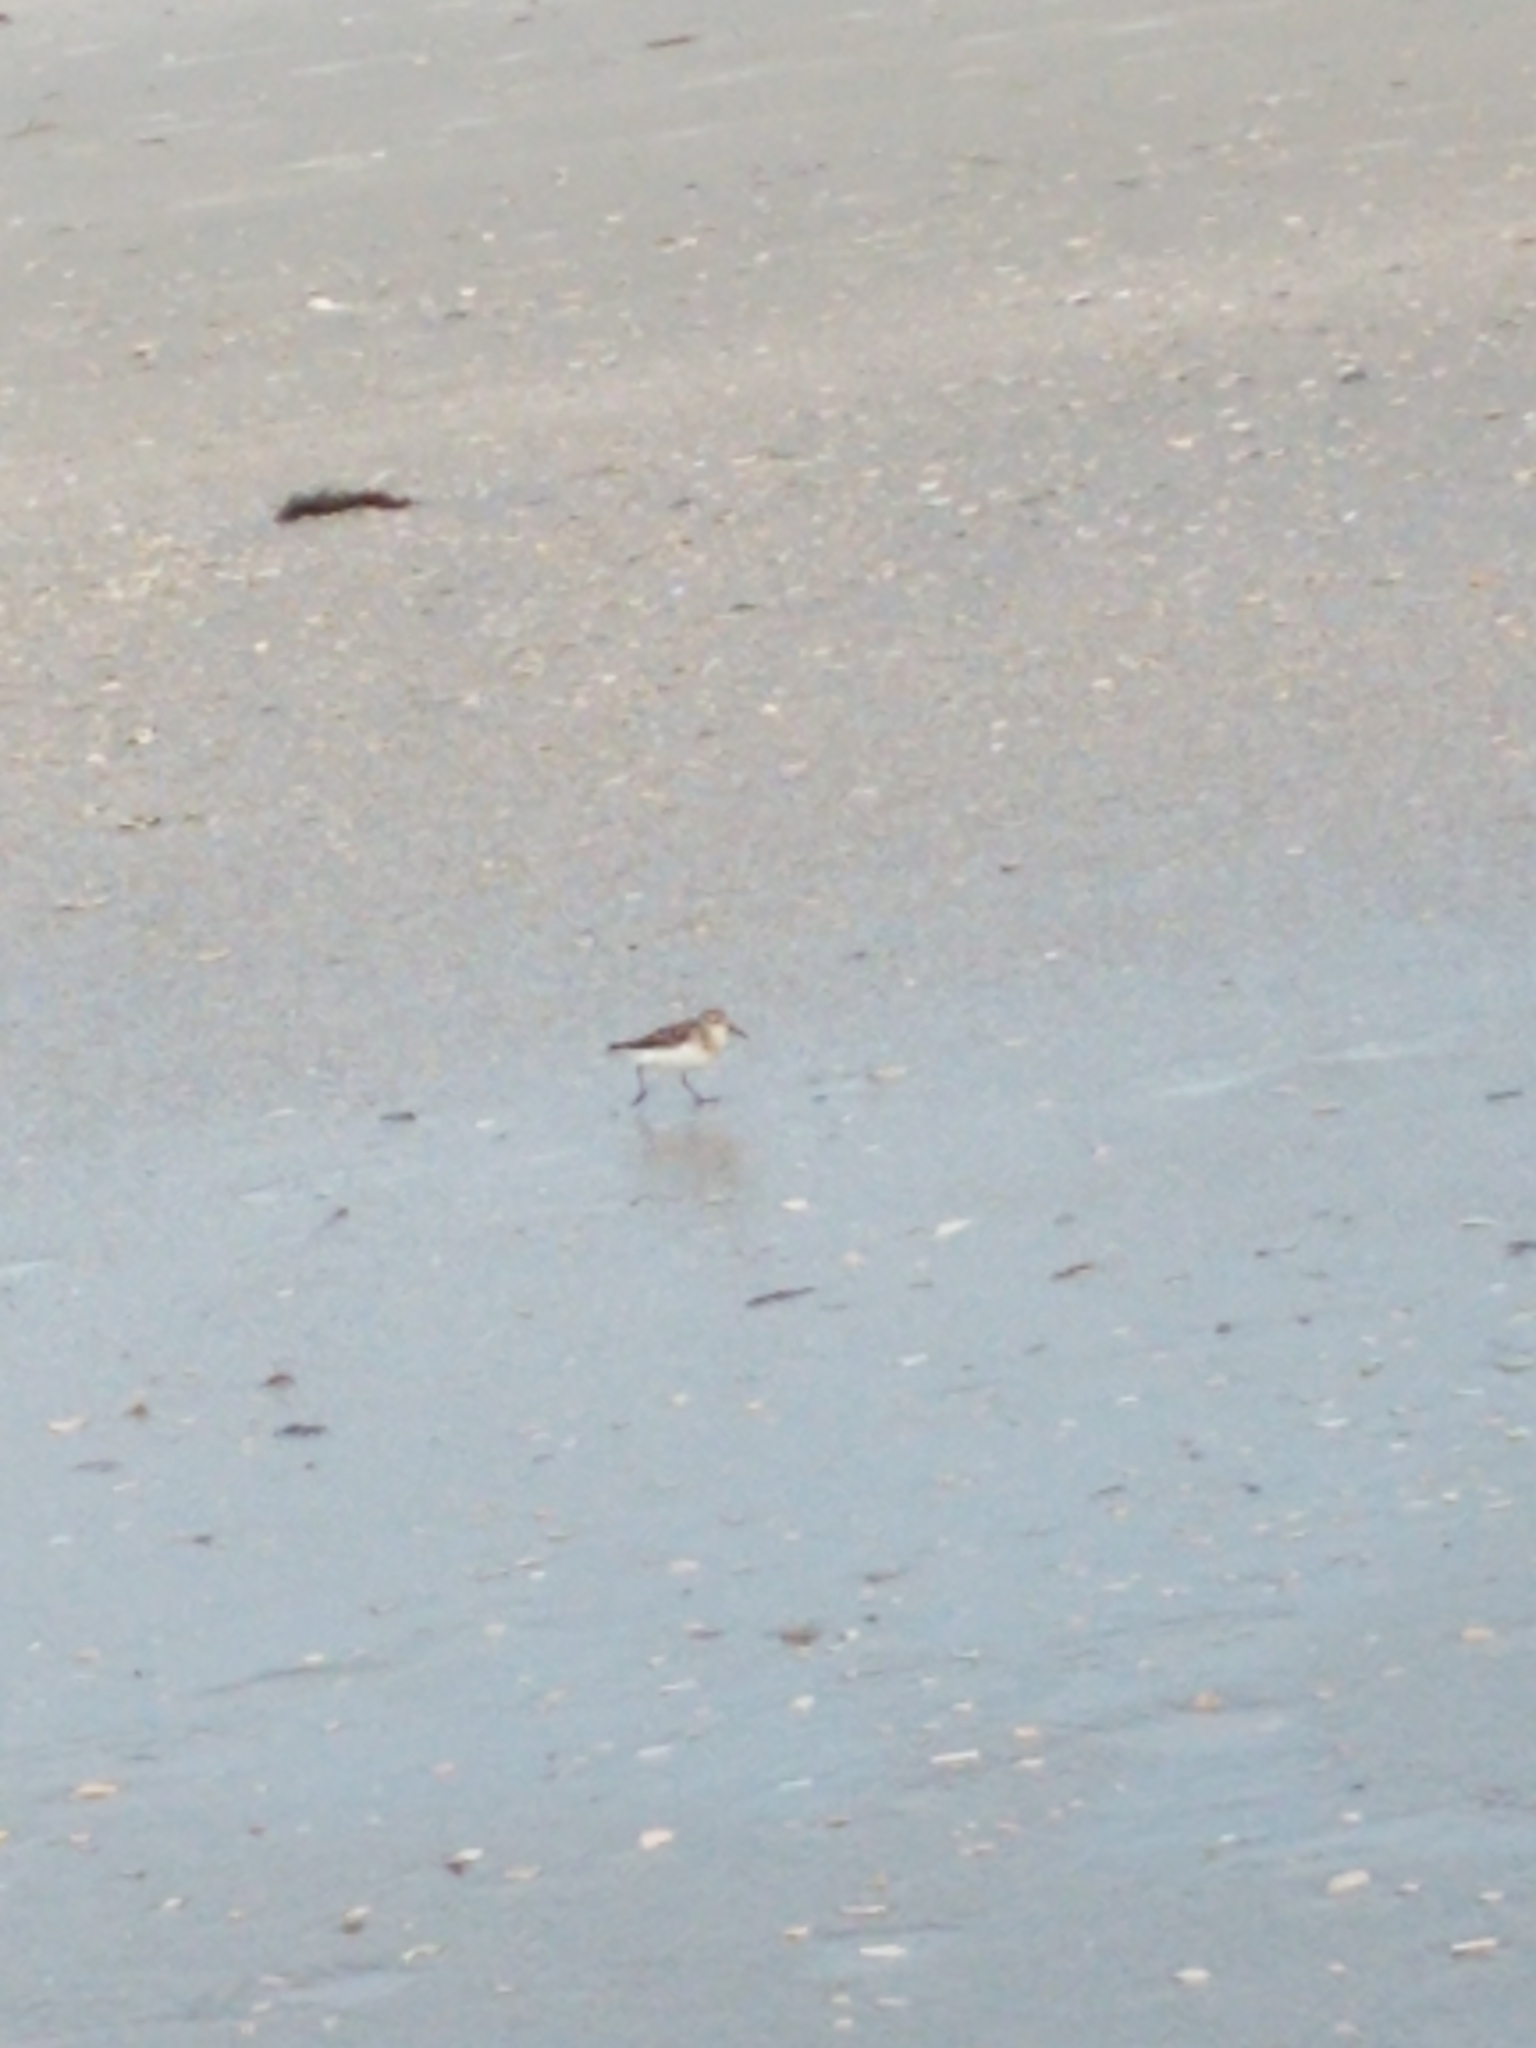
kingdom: Animalia
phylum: Chordata
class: Aves
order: Charadriiformes
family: Scolopacidae
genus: Calidris
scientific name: Calidris pusilla
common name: Semipalmated sandpiper
